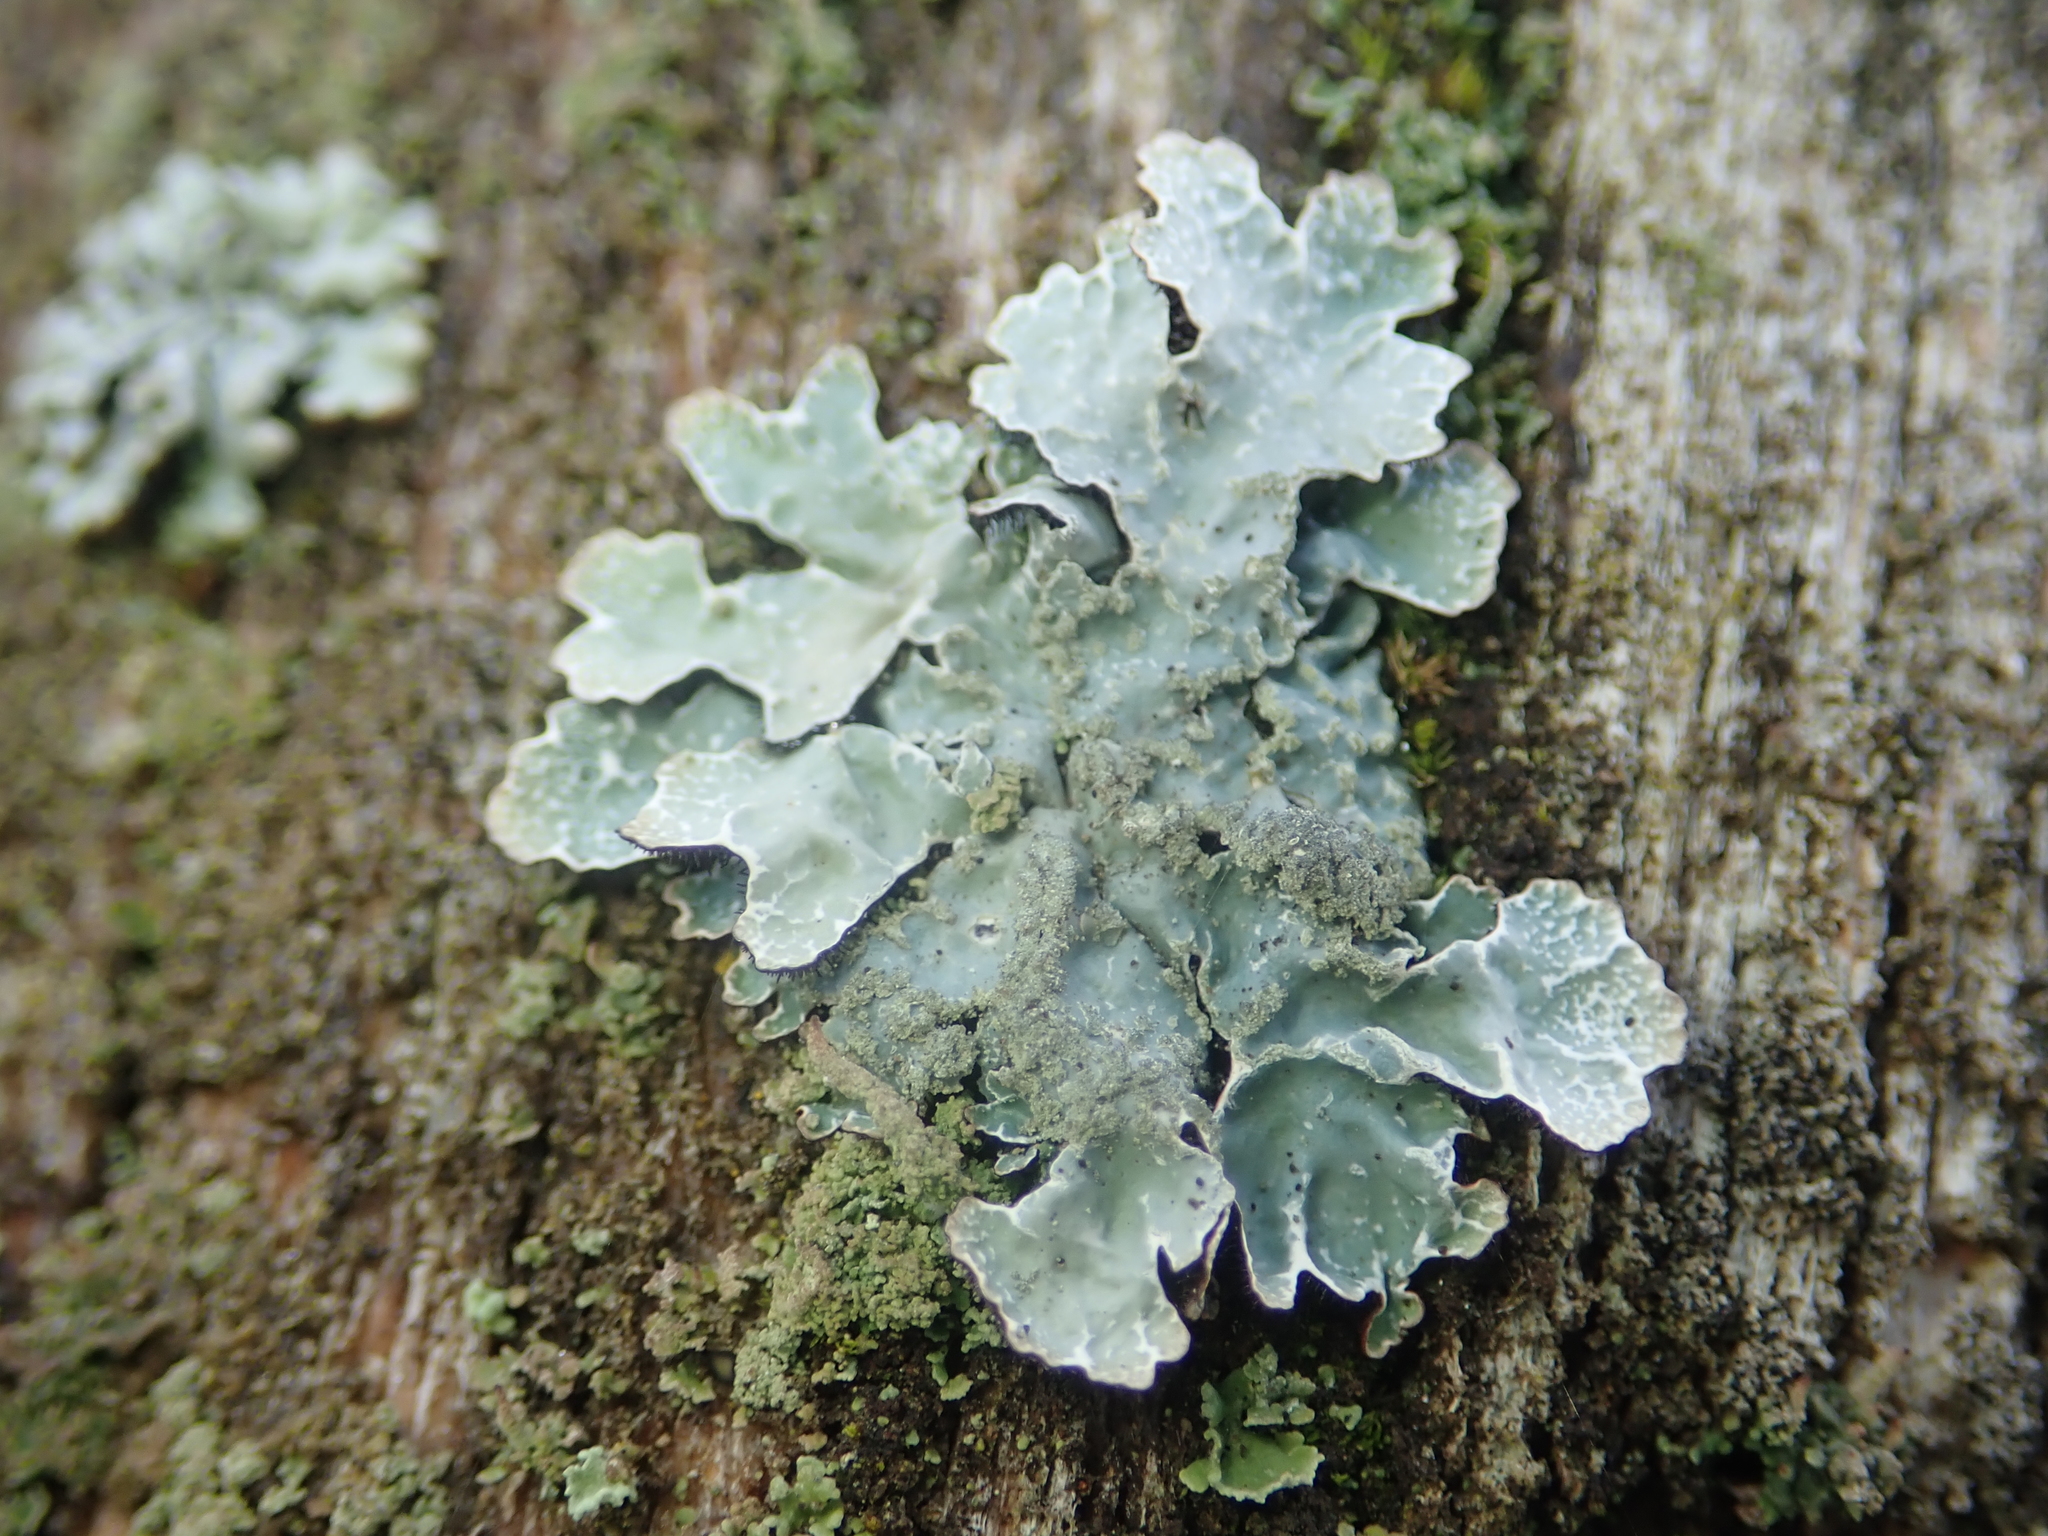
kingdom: Fungi
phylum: Ascomycota
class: Lecanoromycetes
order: Lecanorales
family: Parmeliaceae
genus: Parmelia
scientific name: Parmelia sulcata
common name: Netted shield lichen
